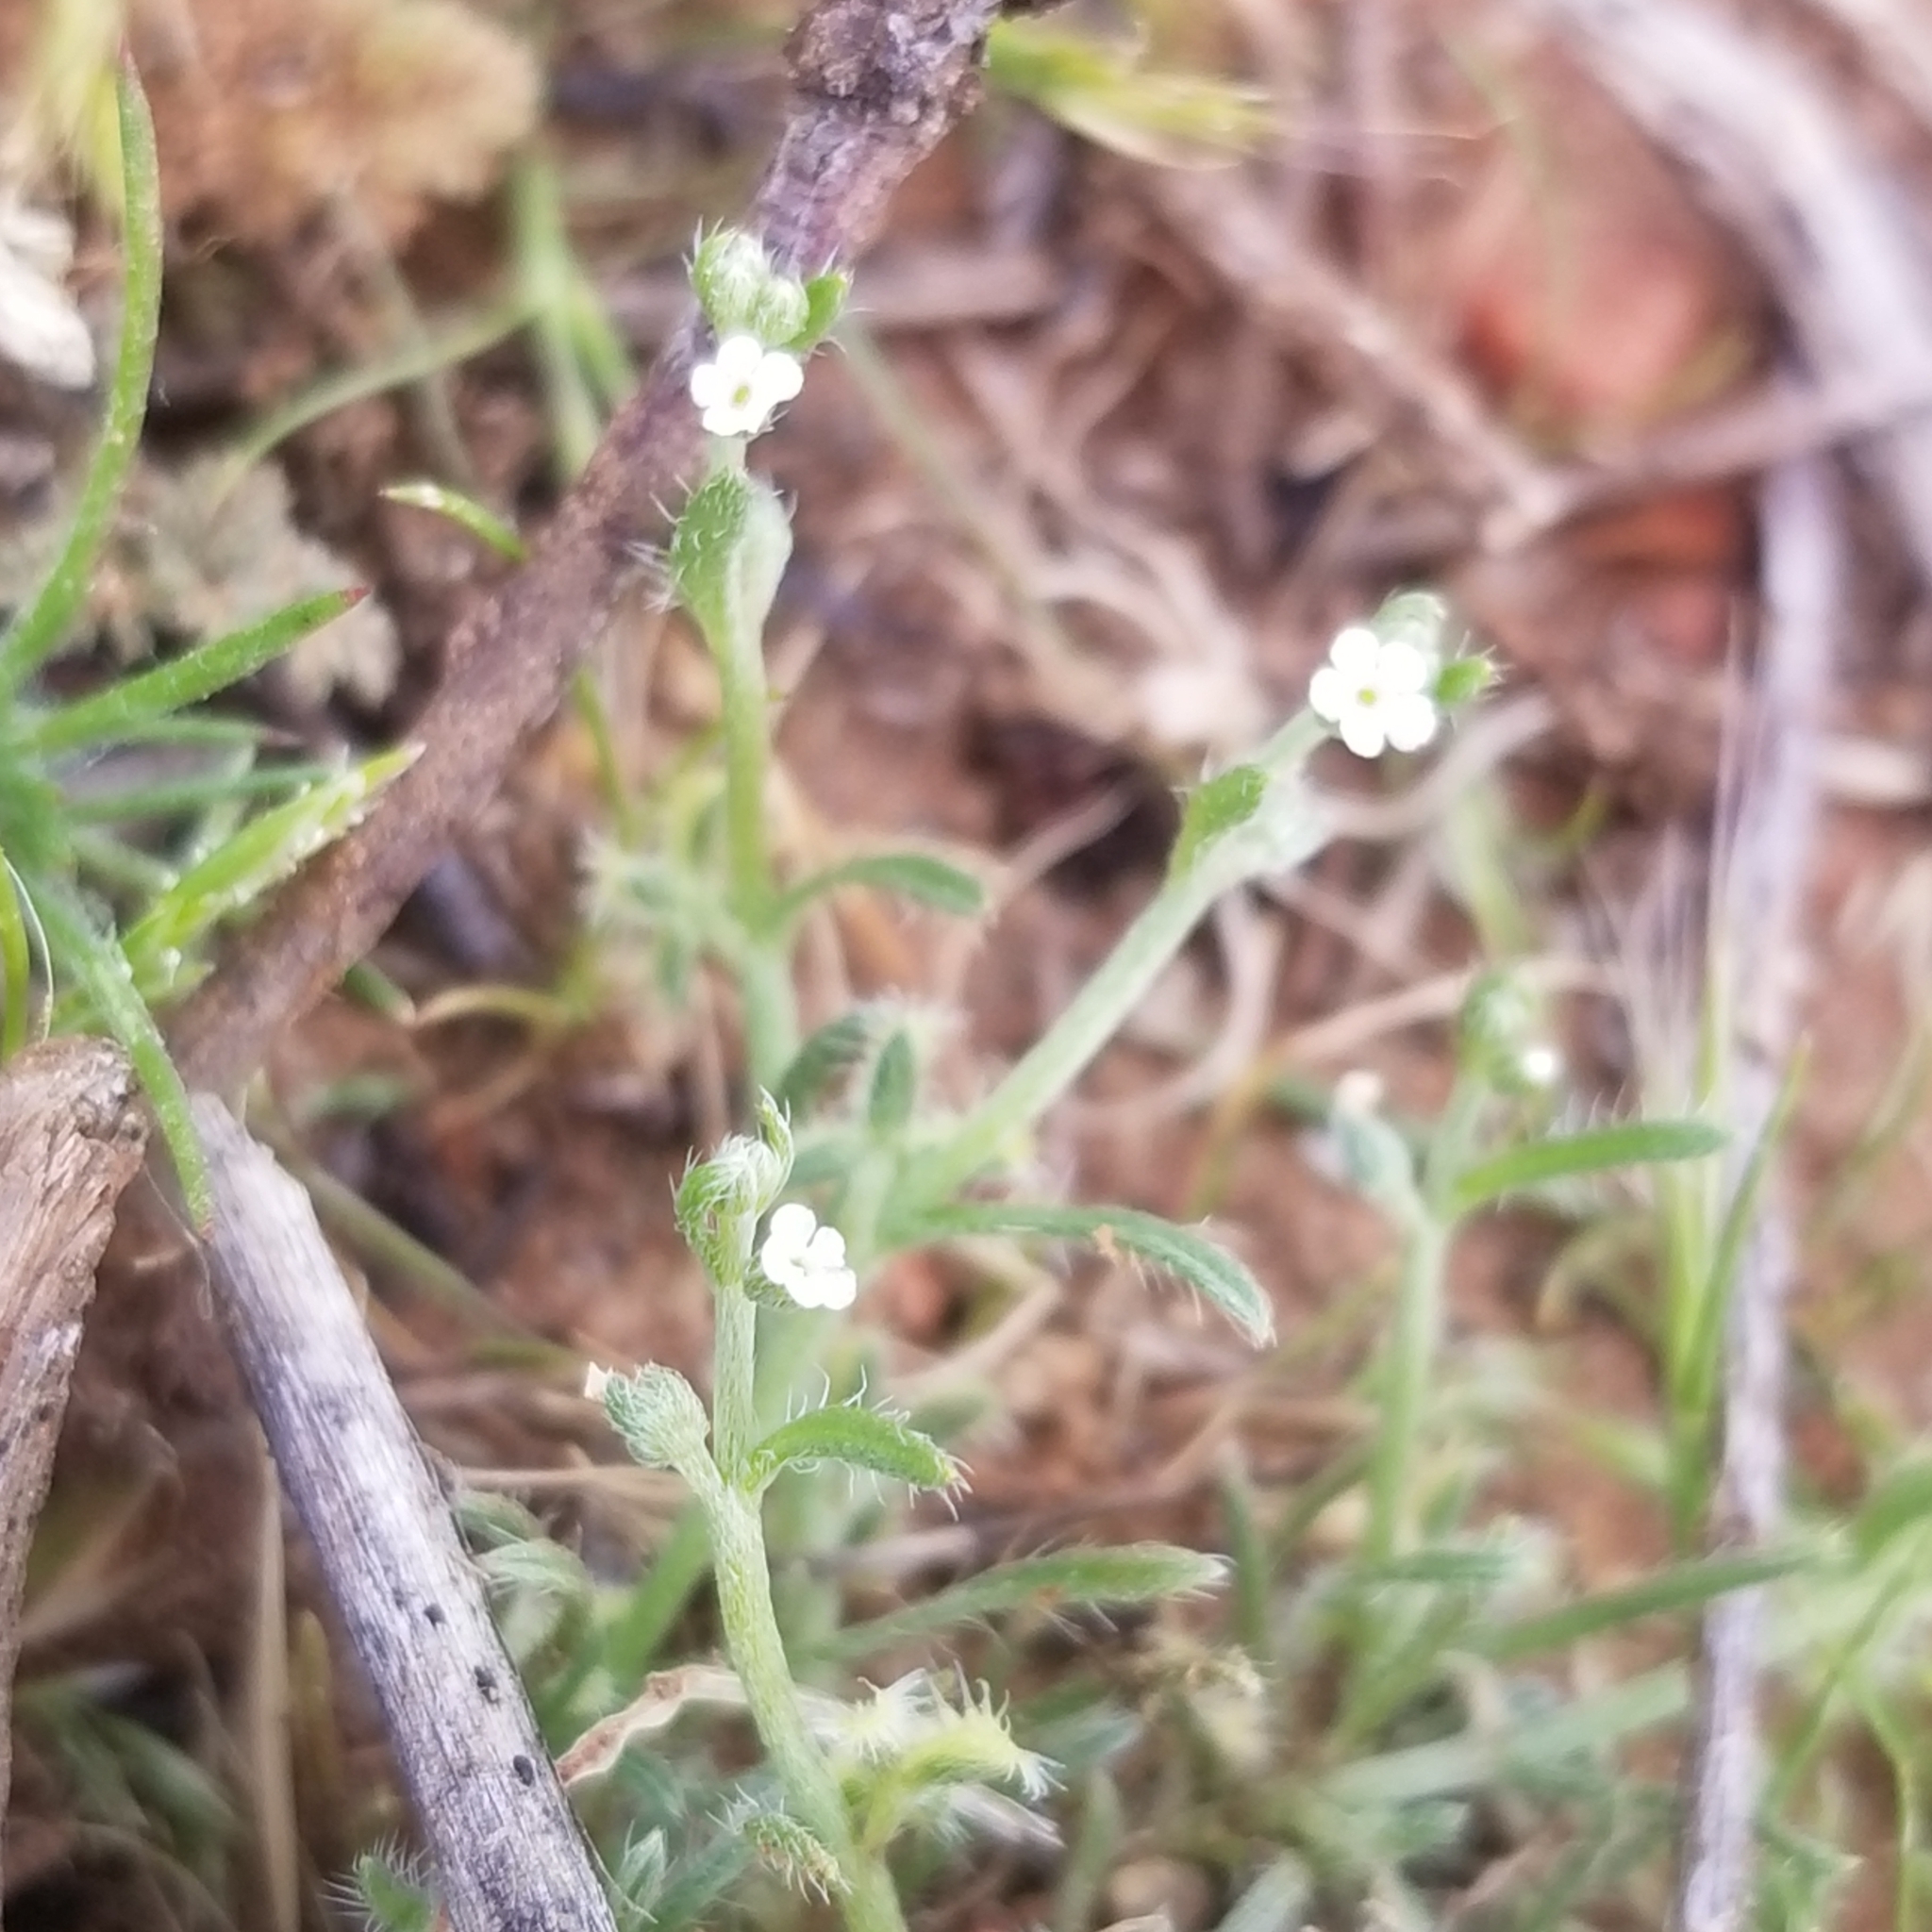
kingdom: Plantae
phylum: Tracheophyta
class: Magnoliopsida
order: Boraginales
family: Boraginaceae
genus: Pectocarya
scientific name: Pectocarya linearis
